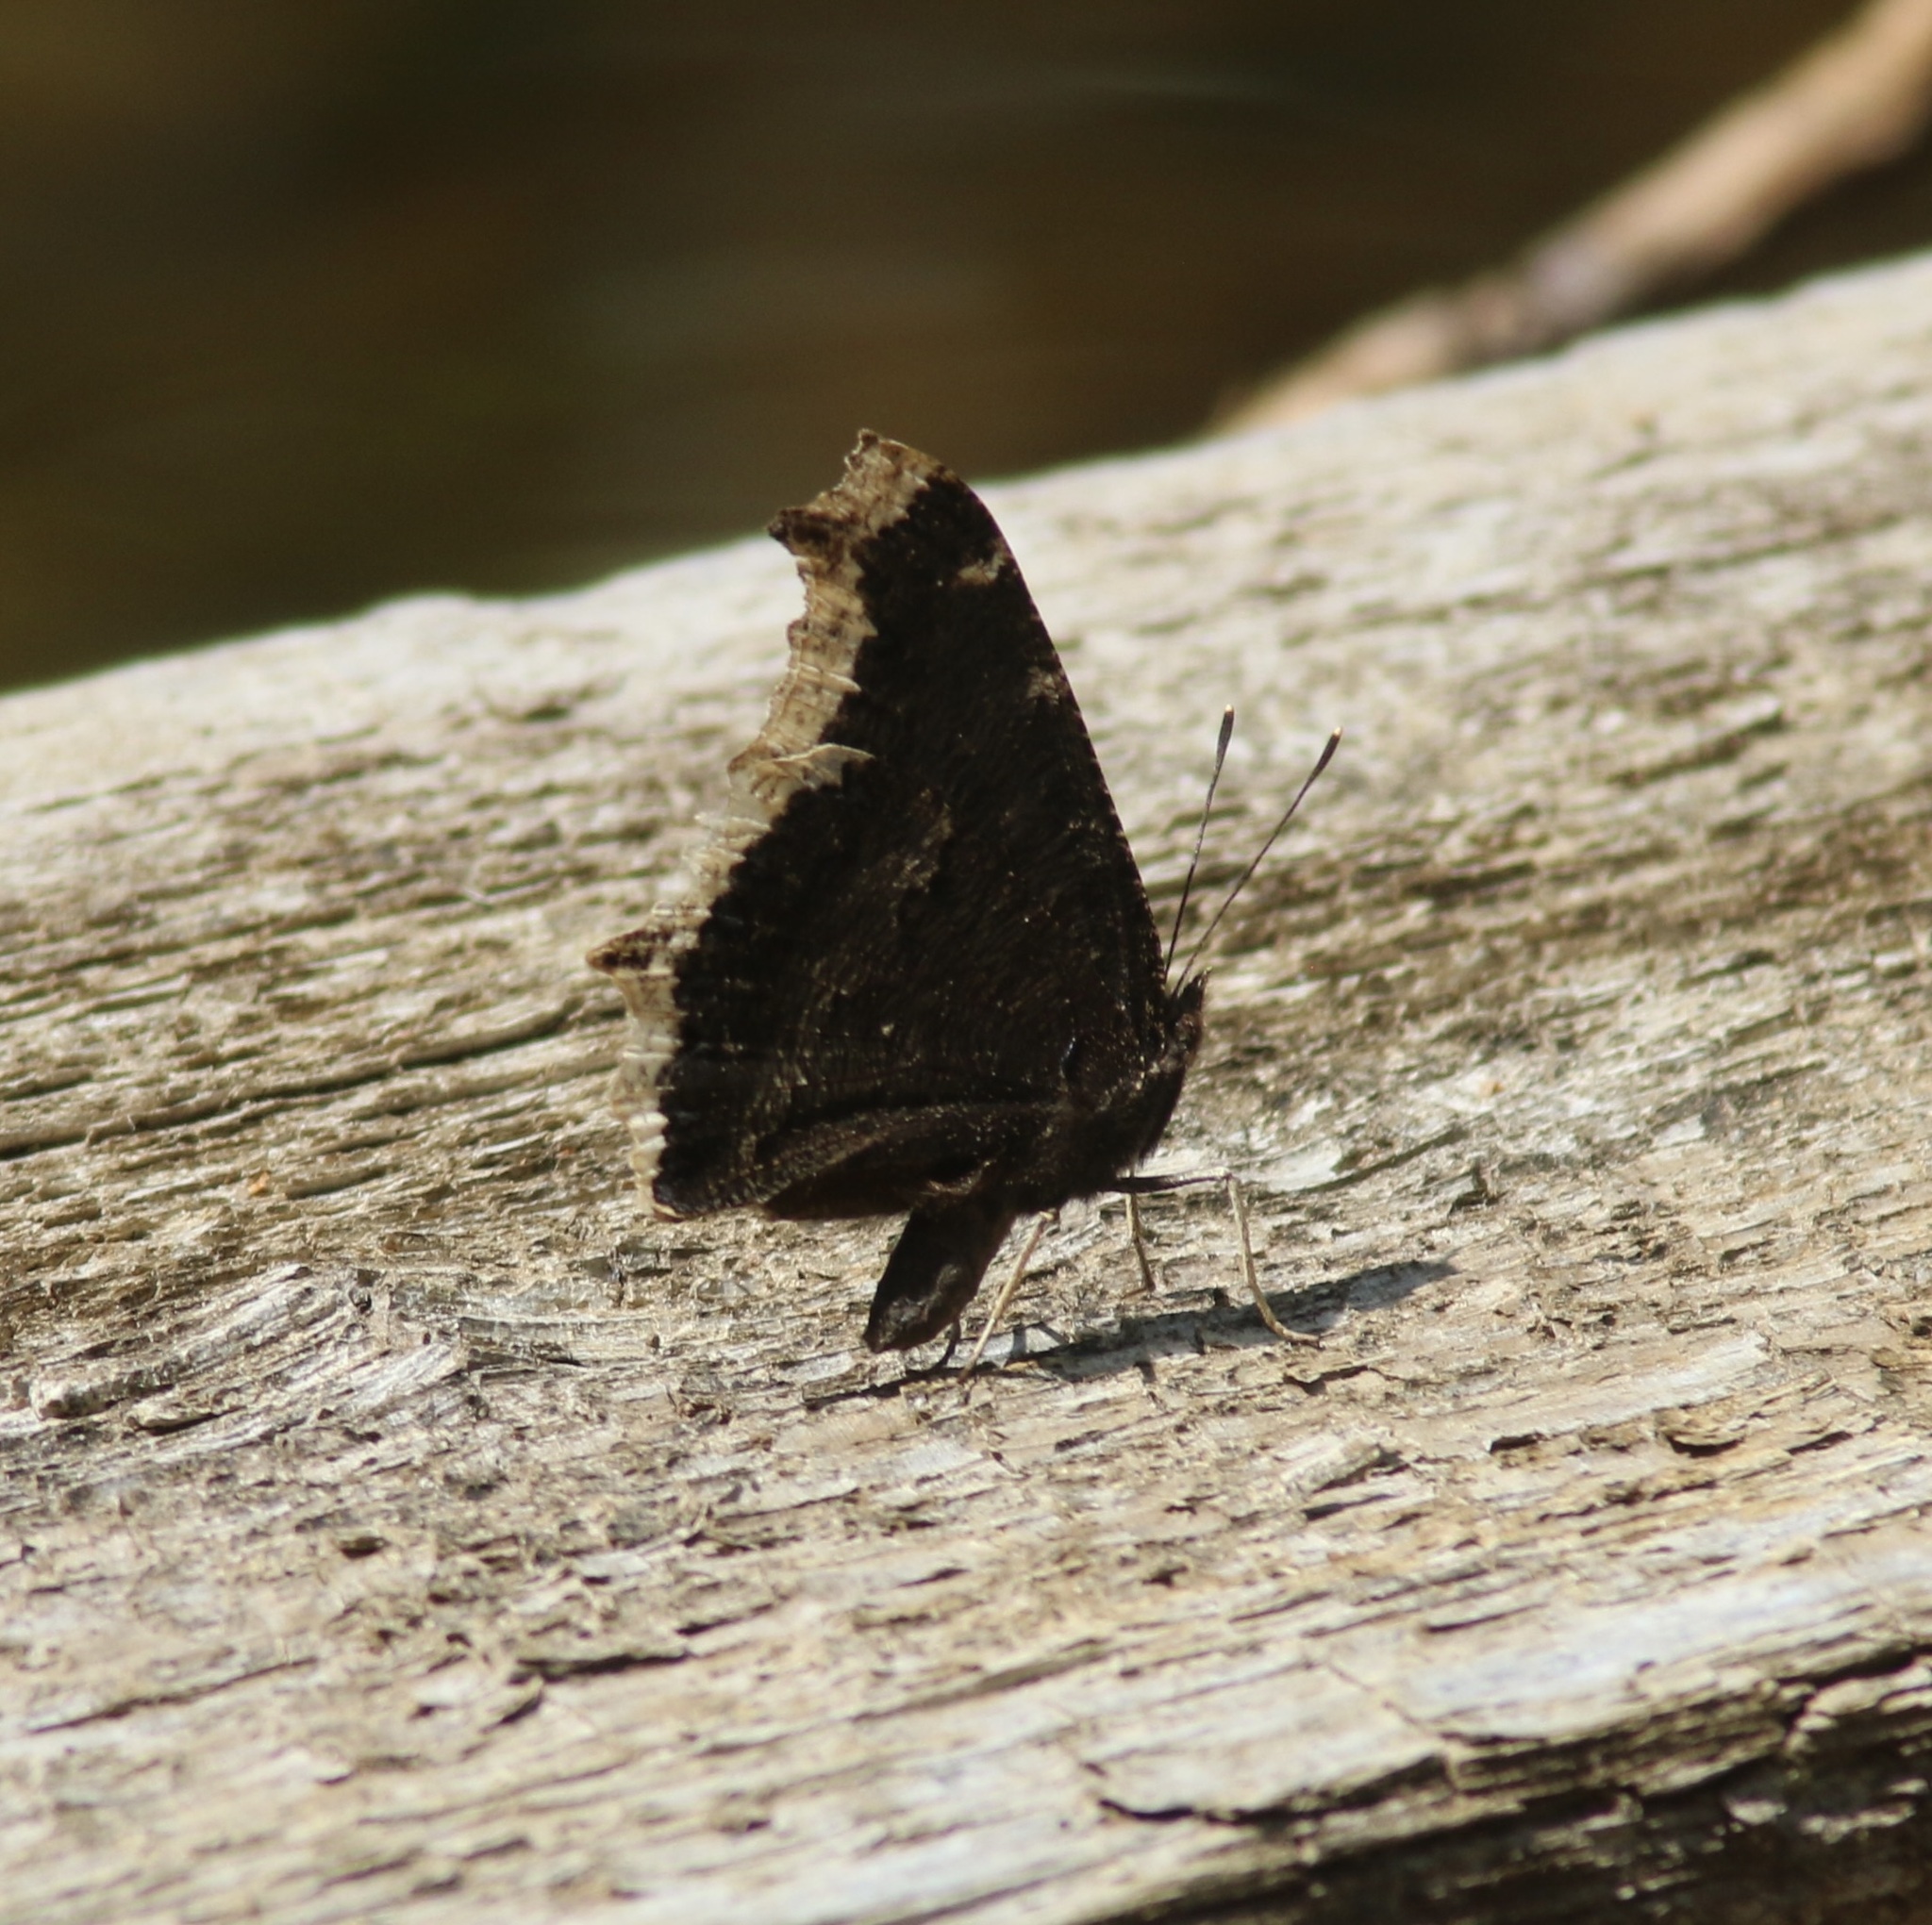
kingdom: Animalia
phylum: Arthropoda
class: Insecta
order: Lepidoptera
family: Nymphalidae
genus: Nymphalis
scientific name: Nymphalis antiopa
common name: Camberwell beauty
